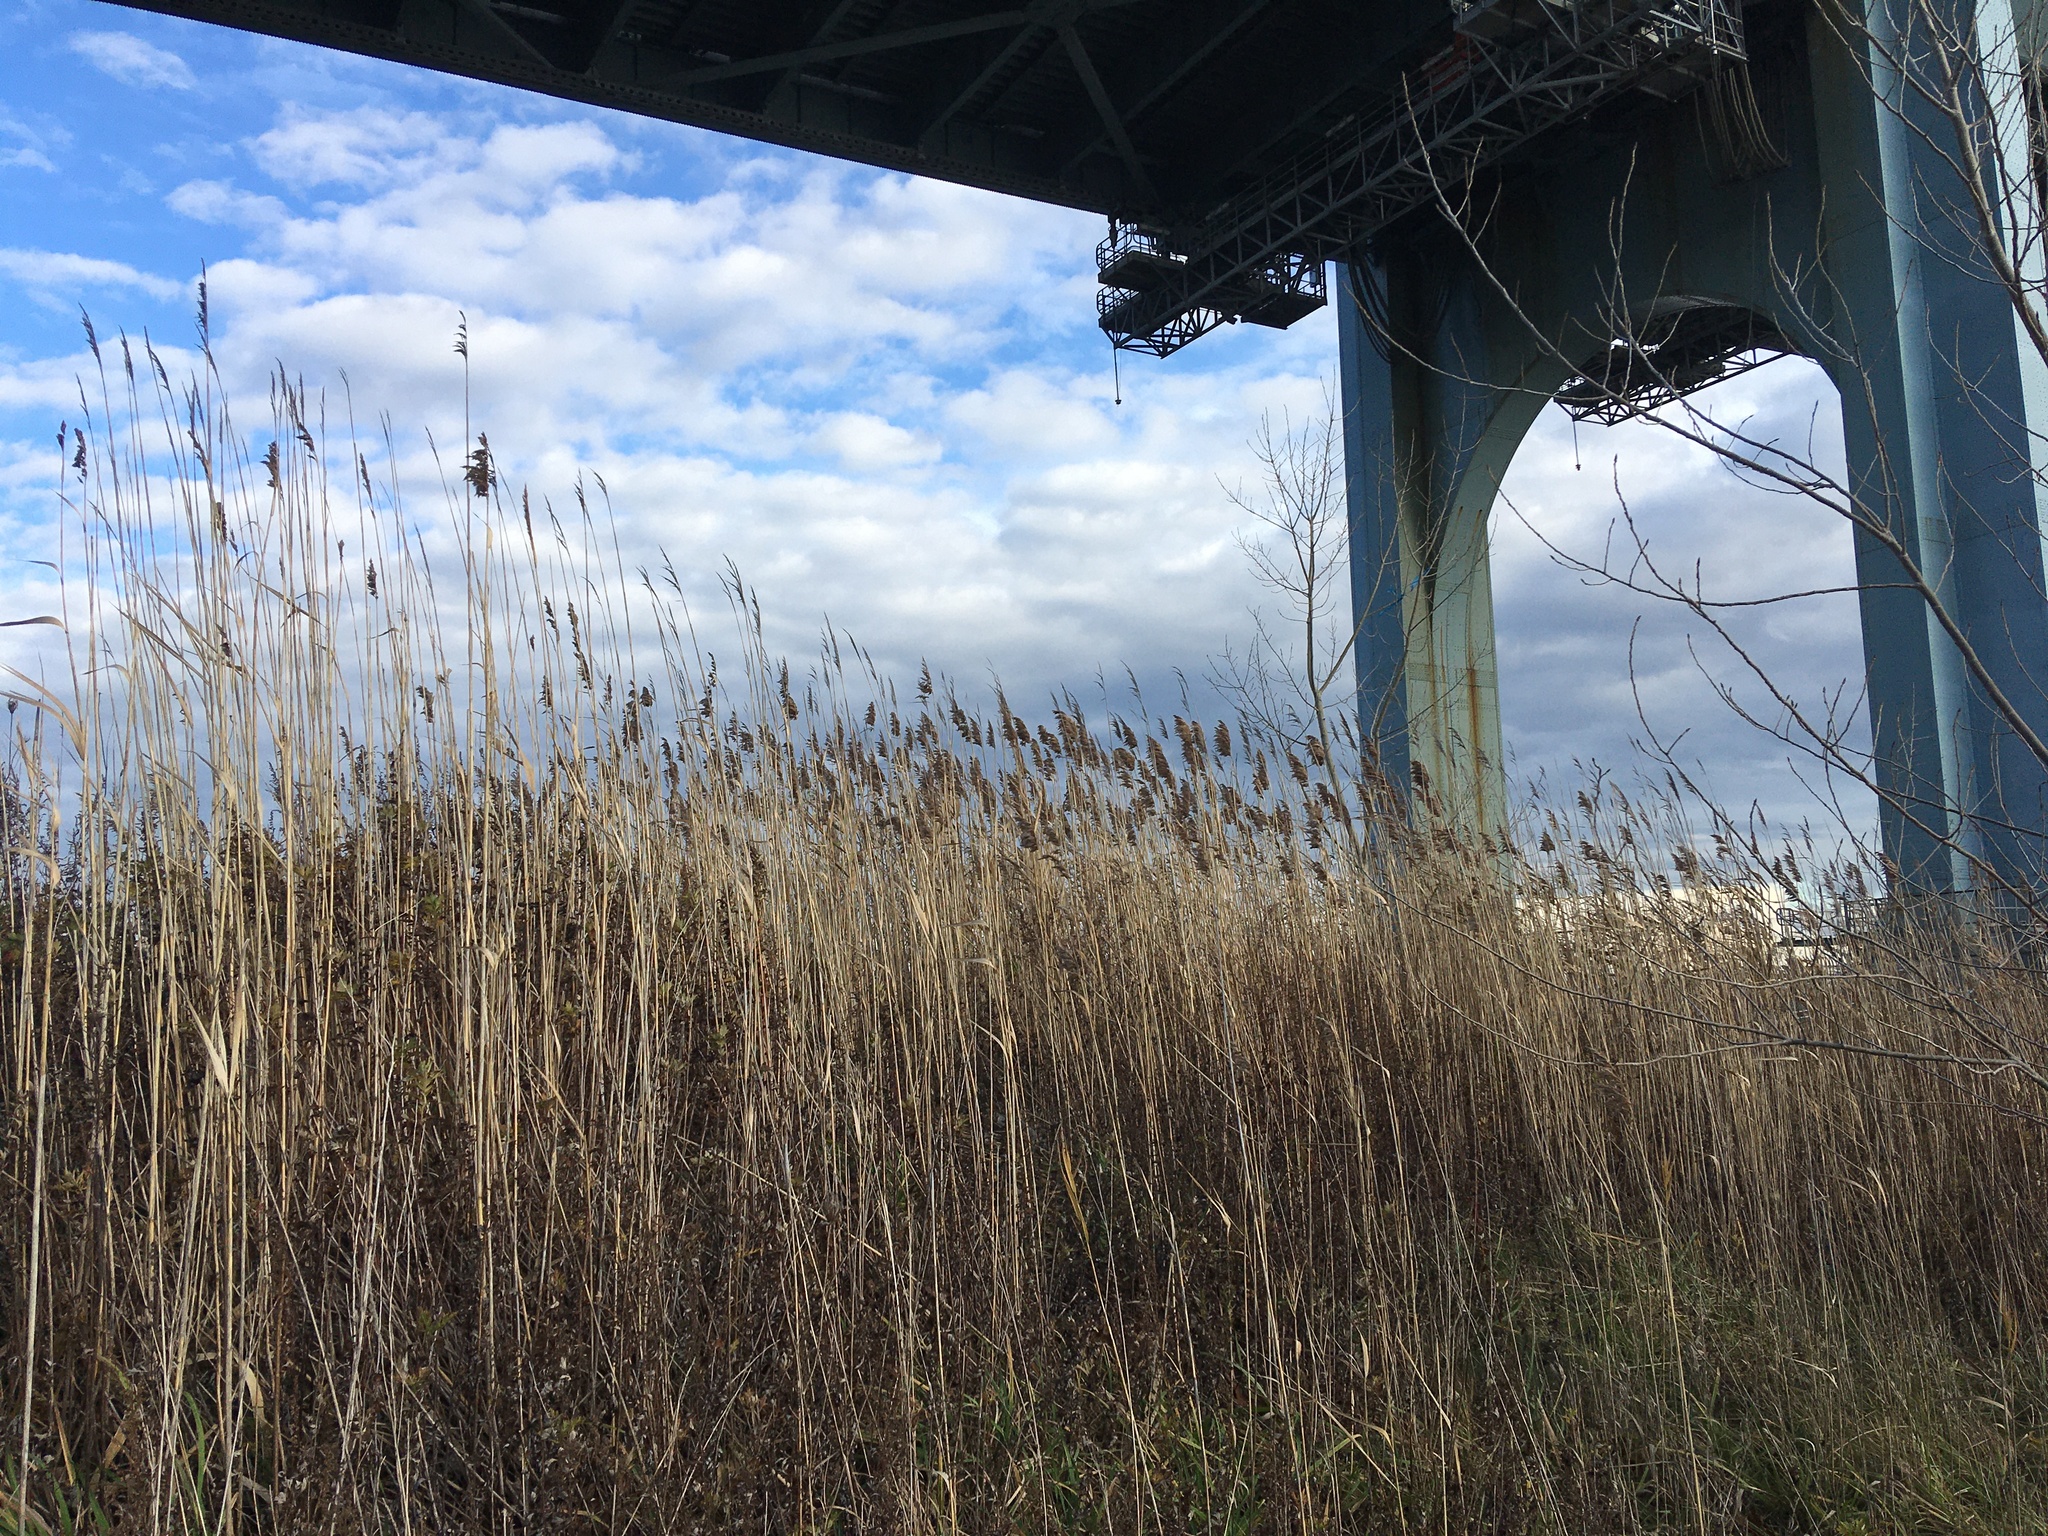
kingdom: Plantae
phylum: Tracheophyta
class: Liliopsida
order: Poales
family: Poaceae
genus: Phragmites
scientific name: Phragmites australis
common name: Common reed
